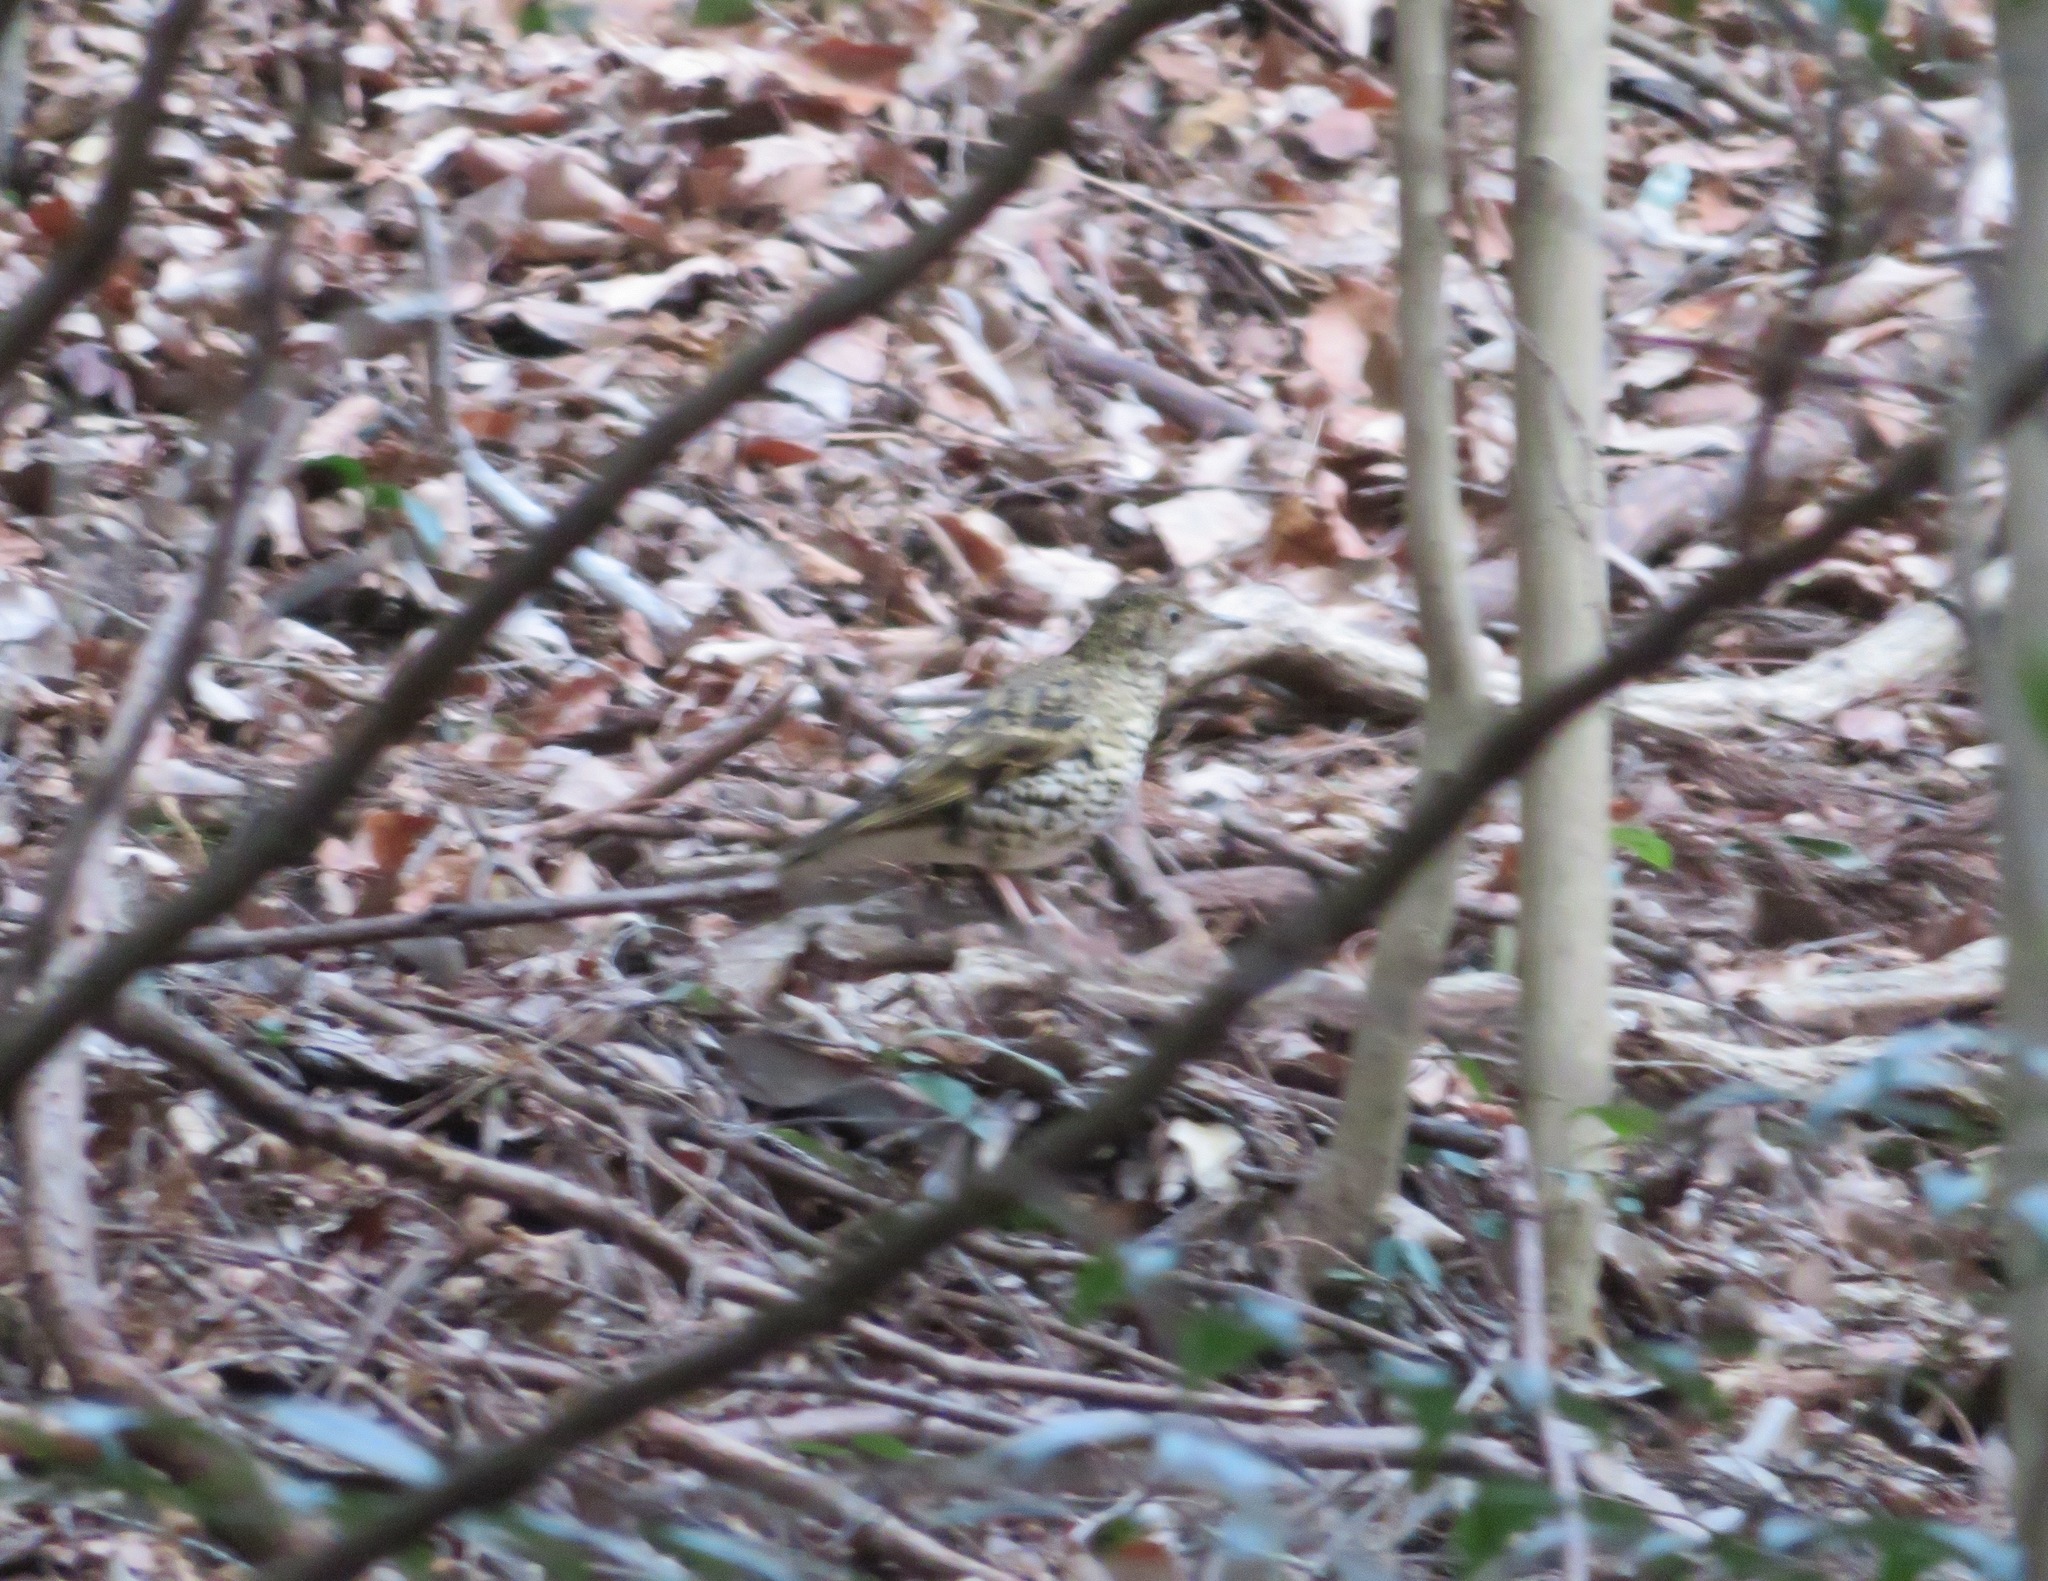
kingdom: Animalia
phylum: Chordata
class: Aves
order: Passeriformes
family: Turdidae
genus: Zoothera
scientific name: Zoothera aurea
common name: White's thrush
